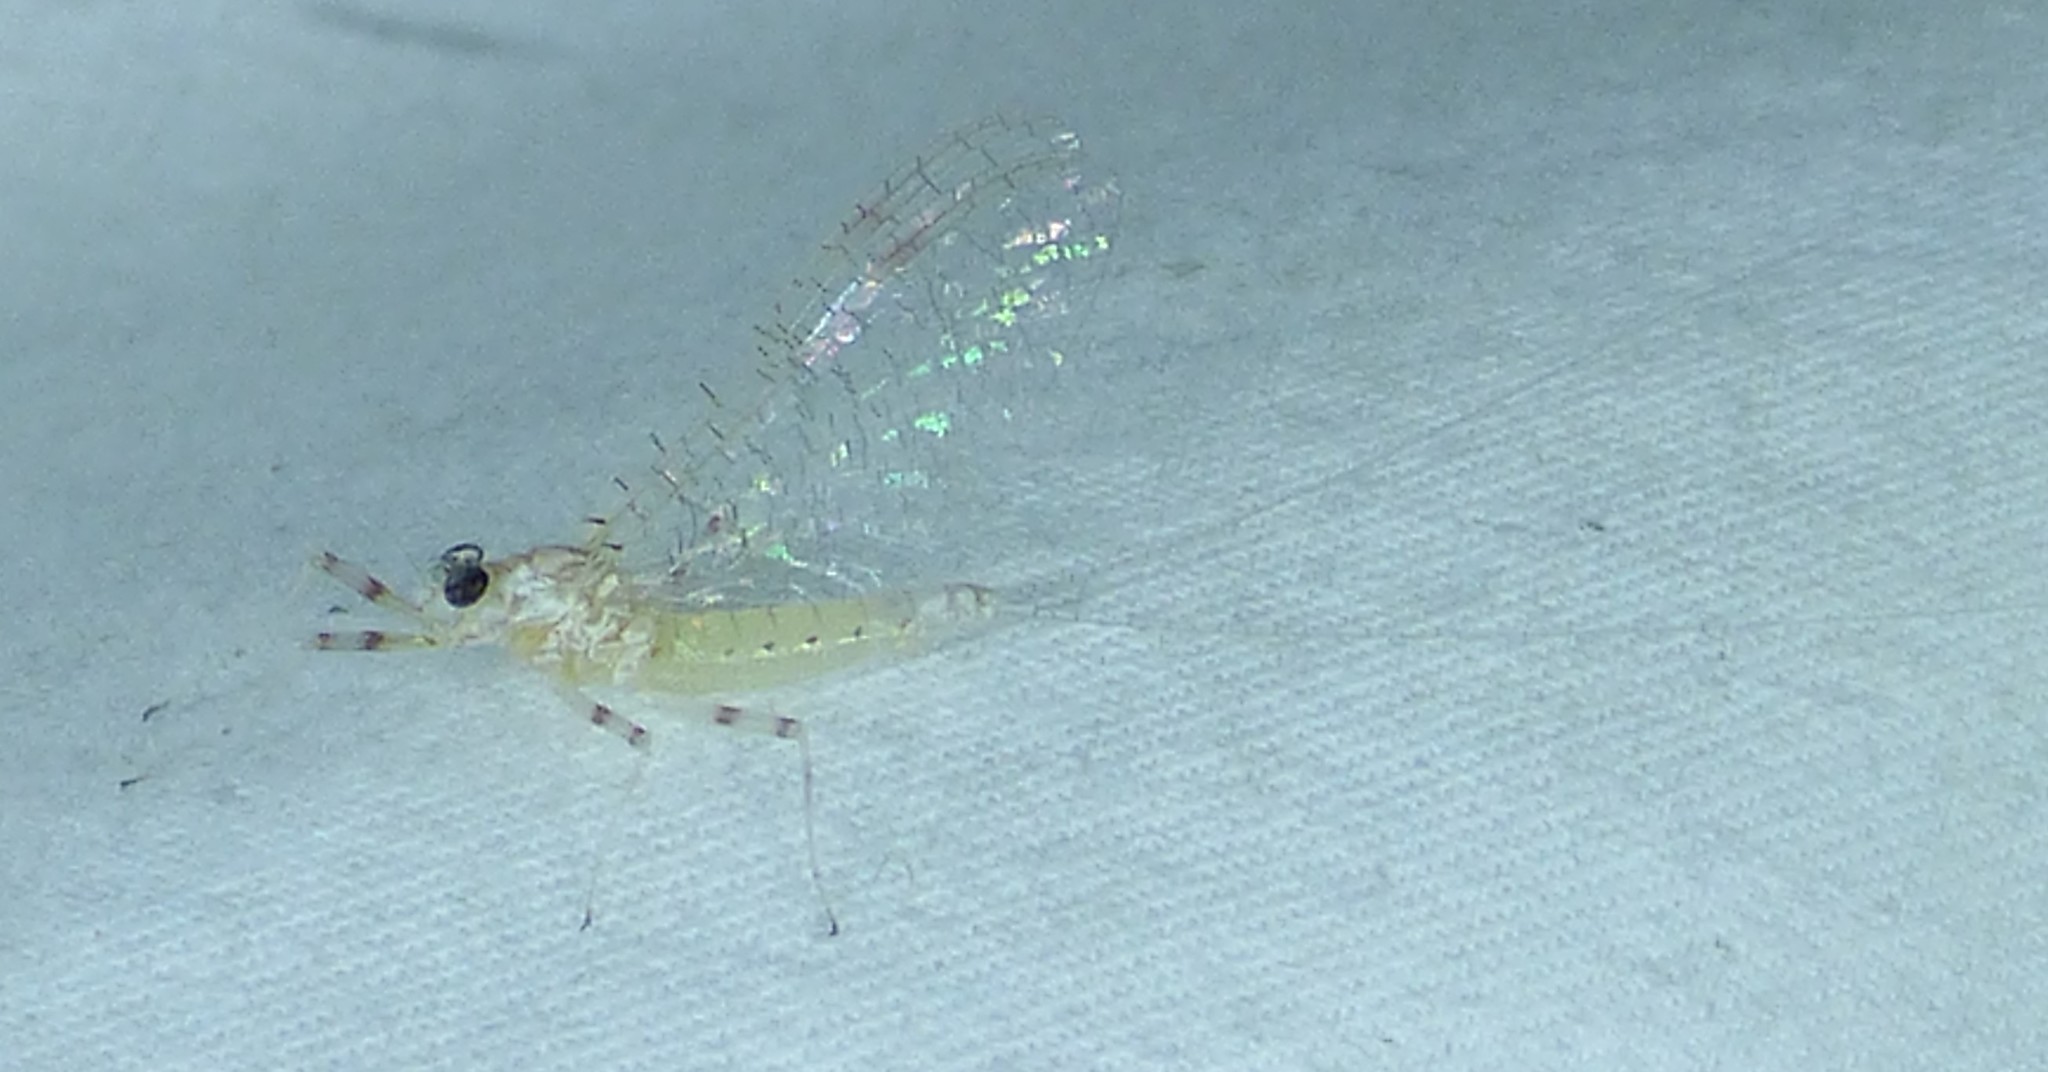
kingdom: Animalia
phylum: Arthropoda
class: Insecta
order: Ephemeroptera
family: Heptageniidae
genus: Maccaffertium
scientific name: Maccaffertium modestum
